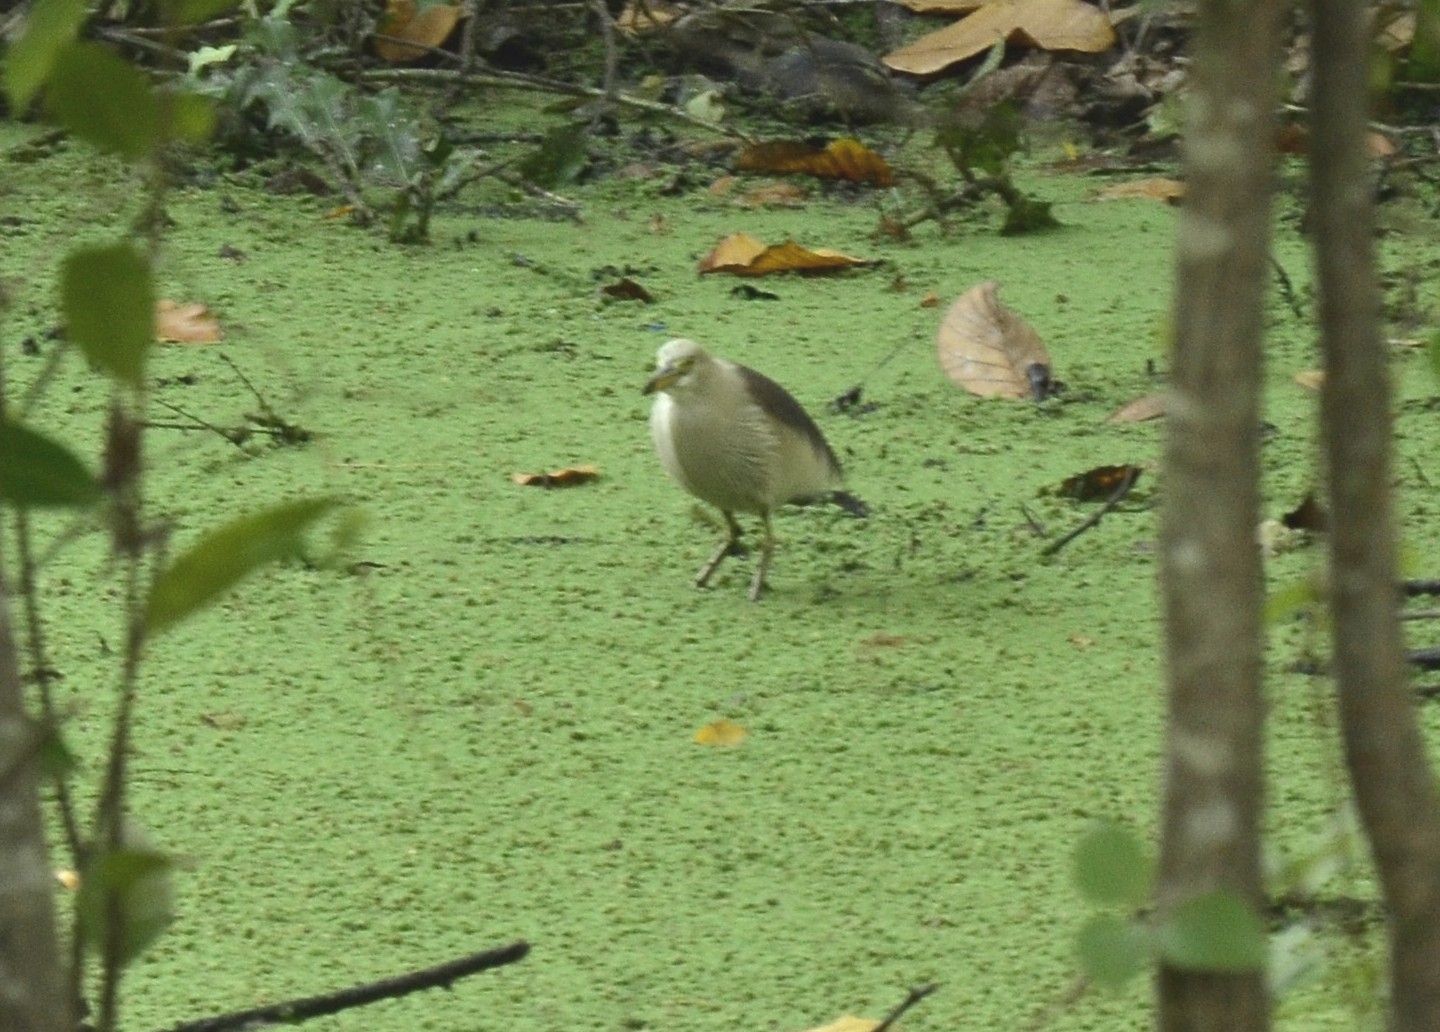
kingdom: Animalia
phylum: Chordata
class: Aves
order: Pelecaniformes
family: Ardeidae
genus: Ardeola
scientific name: Ardeola grayii
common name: Indian pond heron
